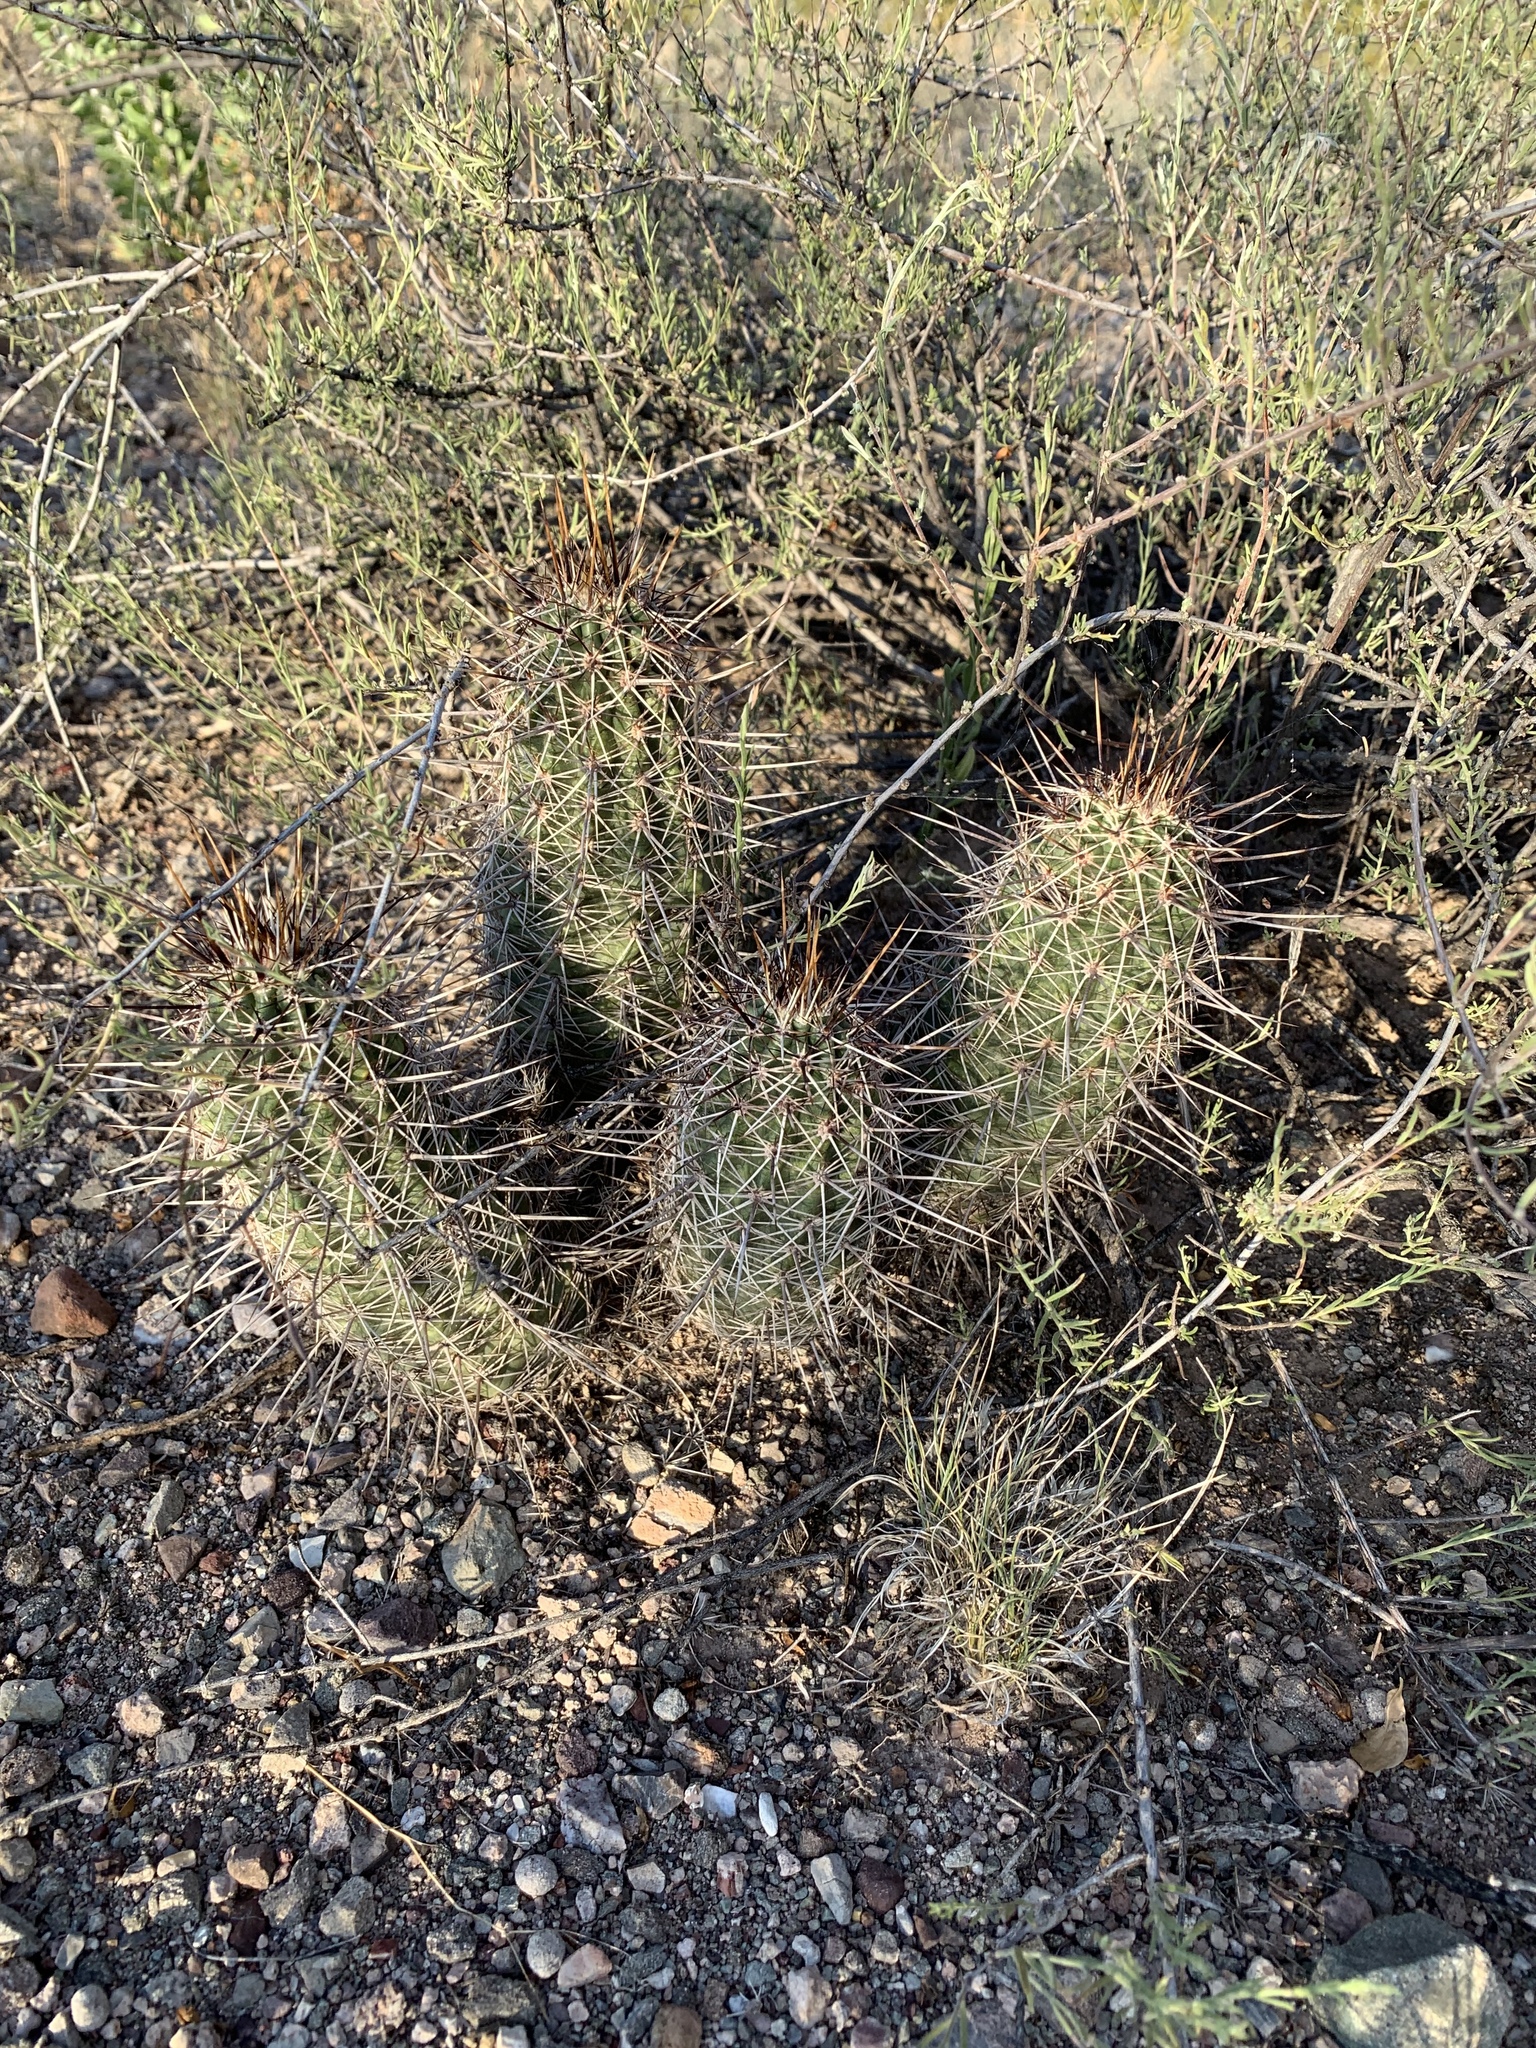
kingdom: Plantae
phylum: Tracheophyta
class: Magnoliopsida
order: Caryophyllales
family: Cactaceae
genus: Echinocereus
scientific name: Echinocereus fasciculatus
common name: Bundle hedgehog
